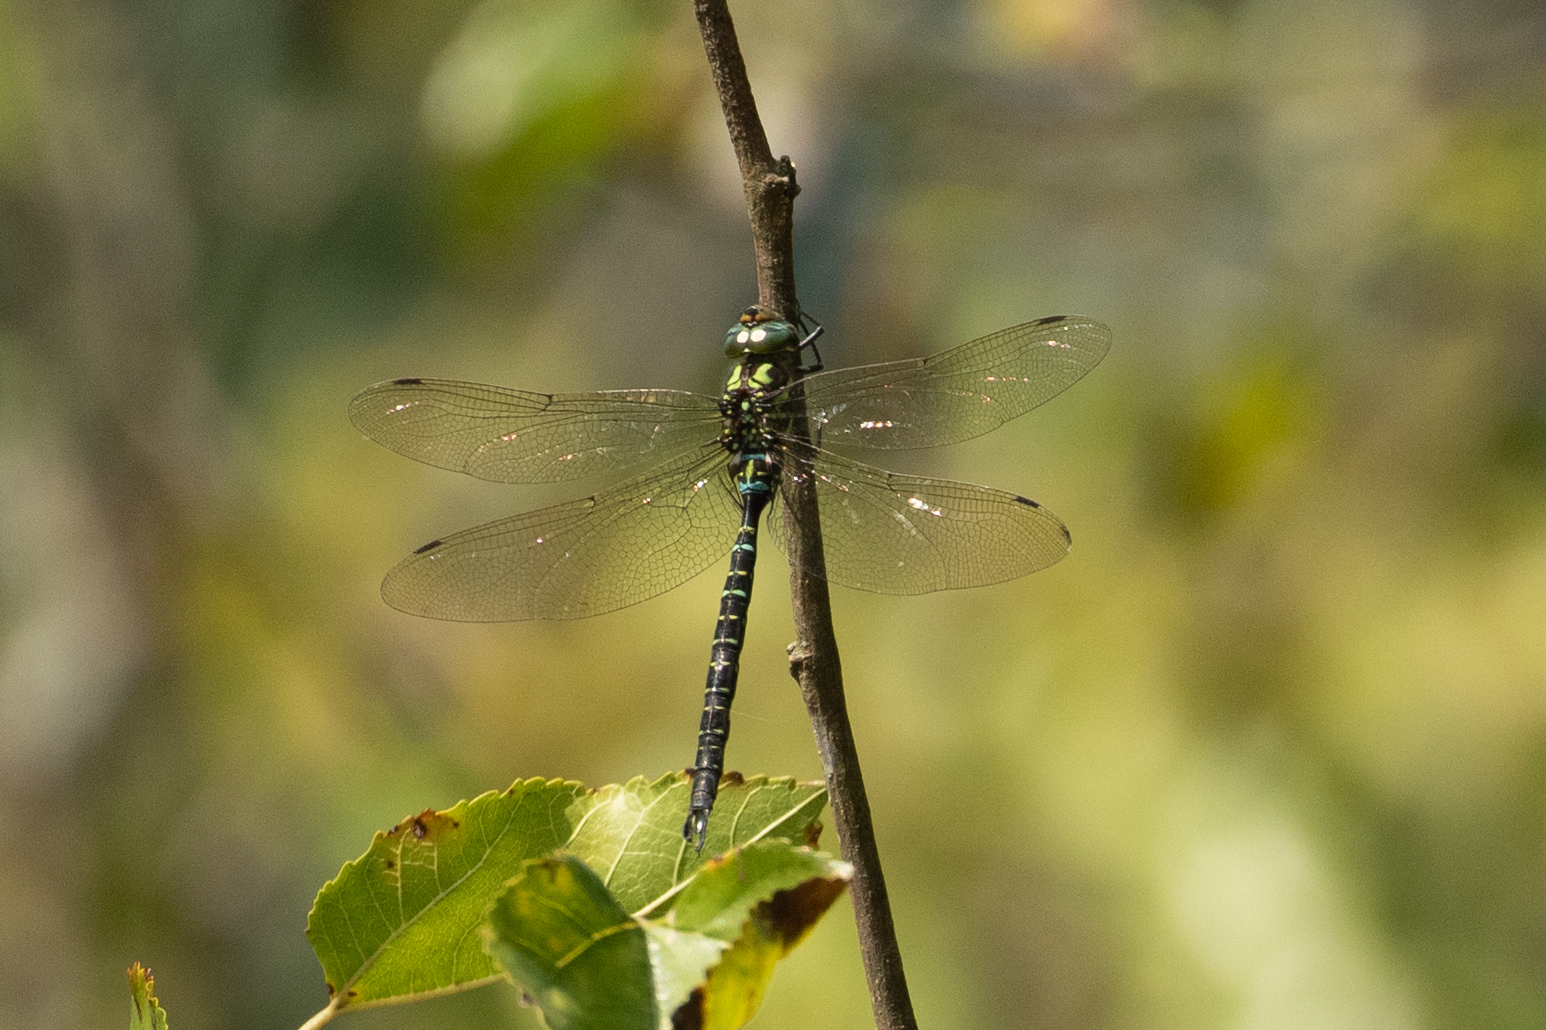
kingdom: Animalia
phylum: Arthropoda
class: Insecta
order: Odonata
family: Aeshnidae
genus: Aeshna
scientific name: Aeshna umbrosa
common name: Shadow darner
